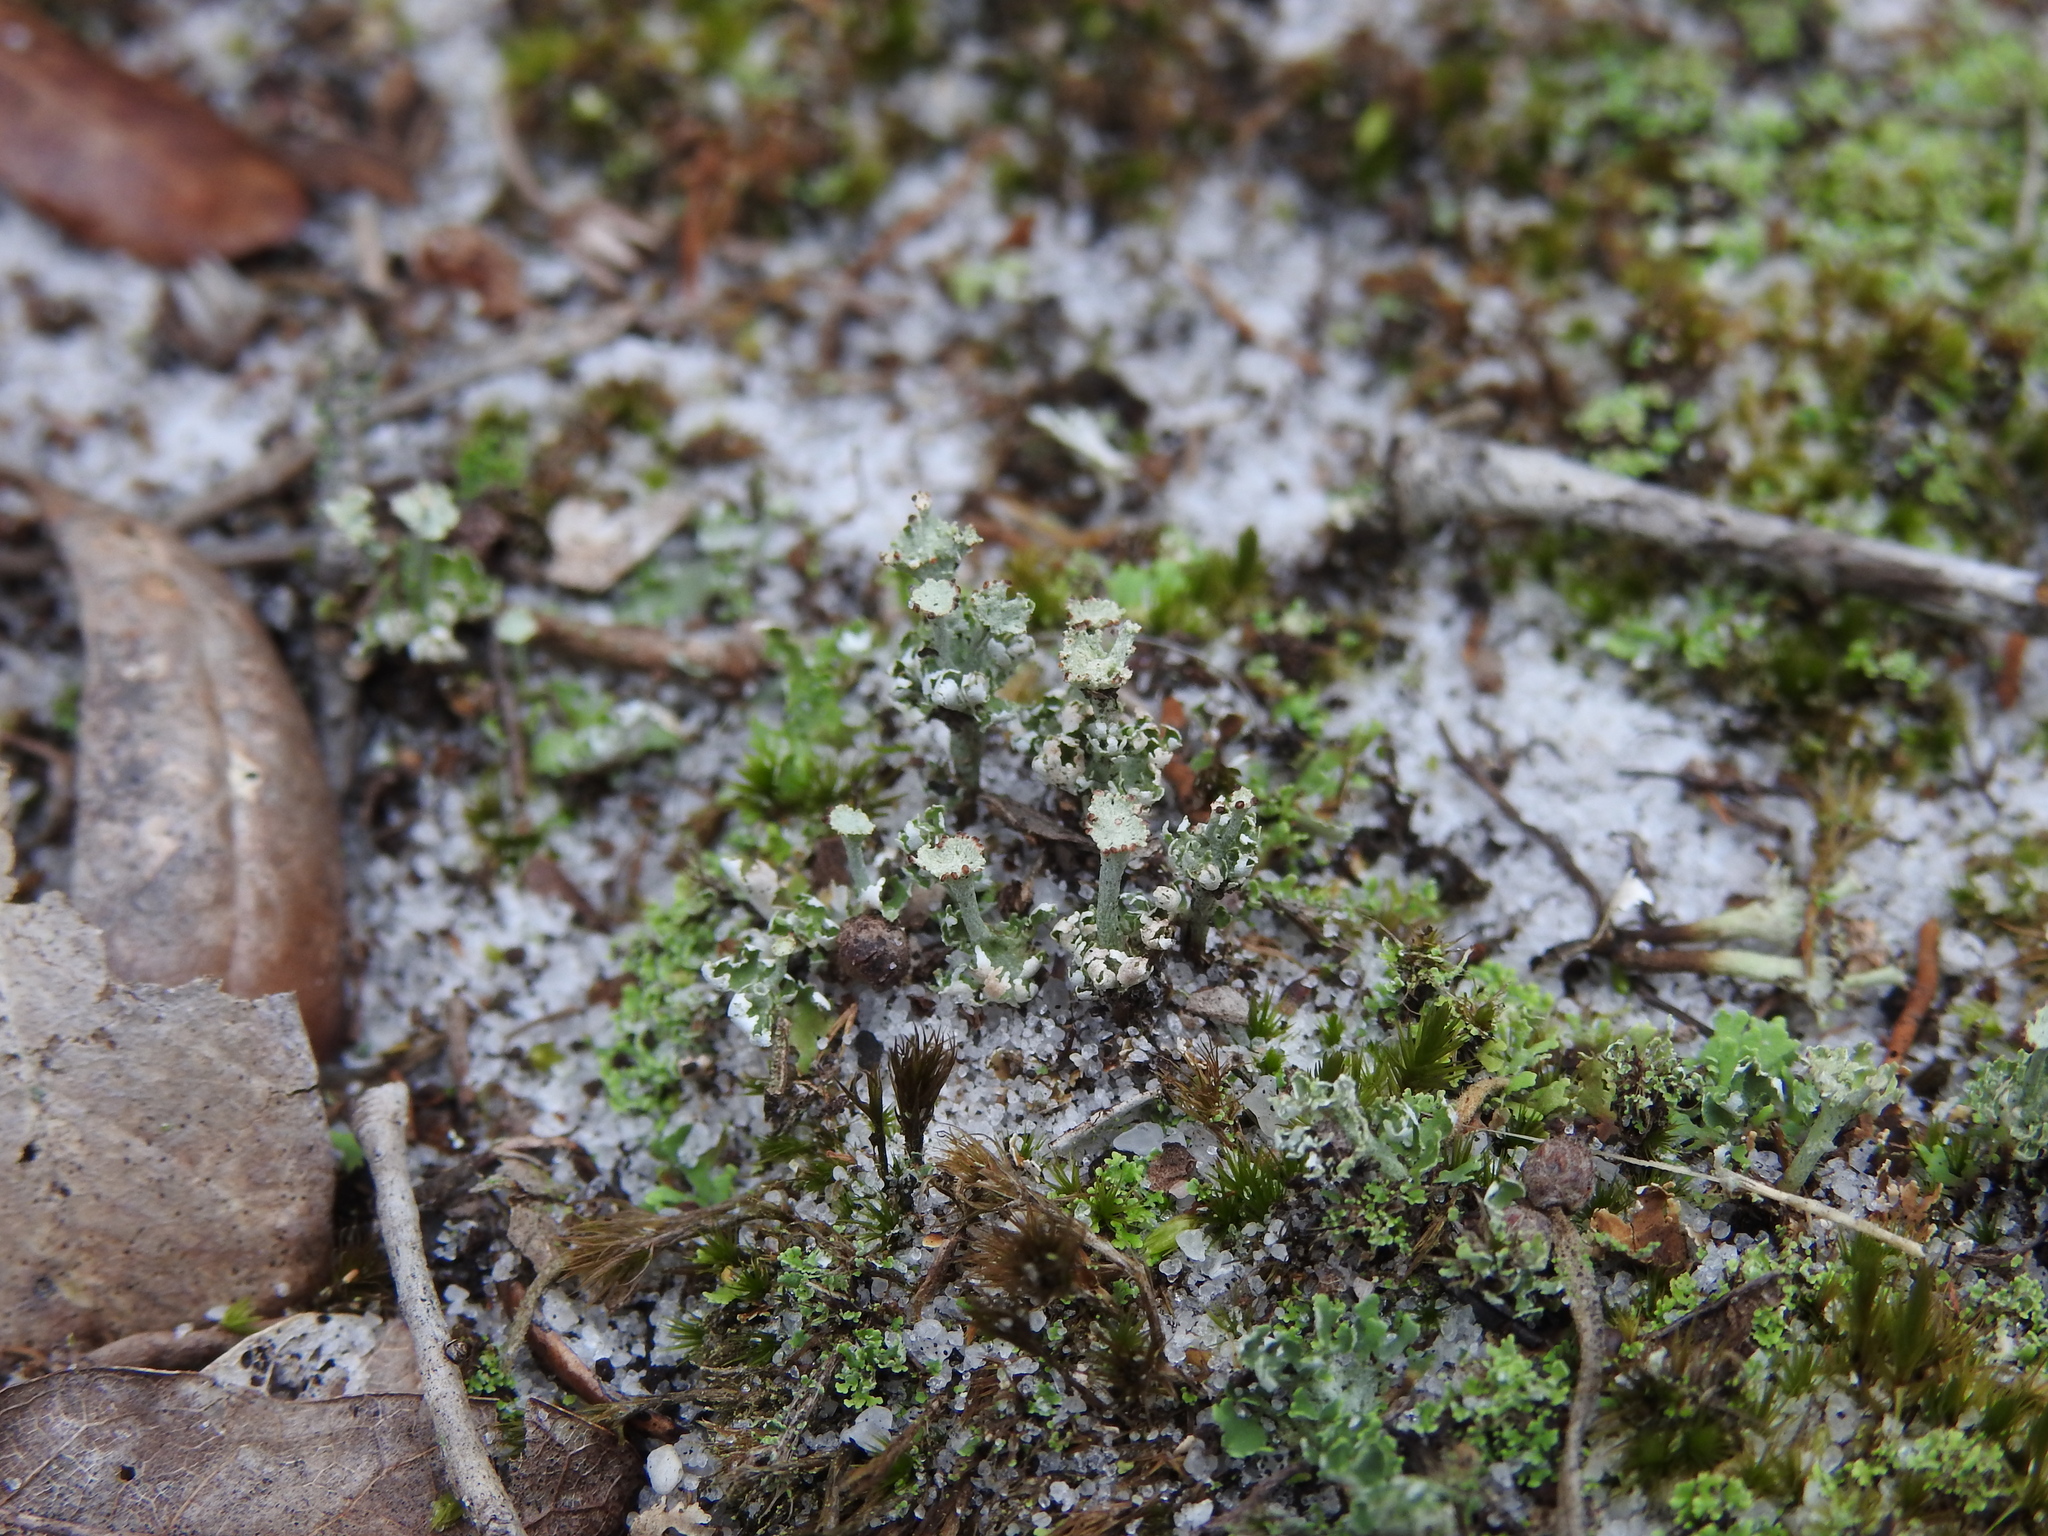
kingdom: Fungi
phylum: Ascomycota
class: Lecanoromycetes
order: Lecanorales
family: Cladoniaceae
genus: Cladonia
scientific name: Cladonia rappii
